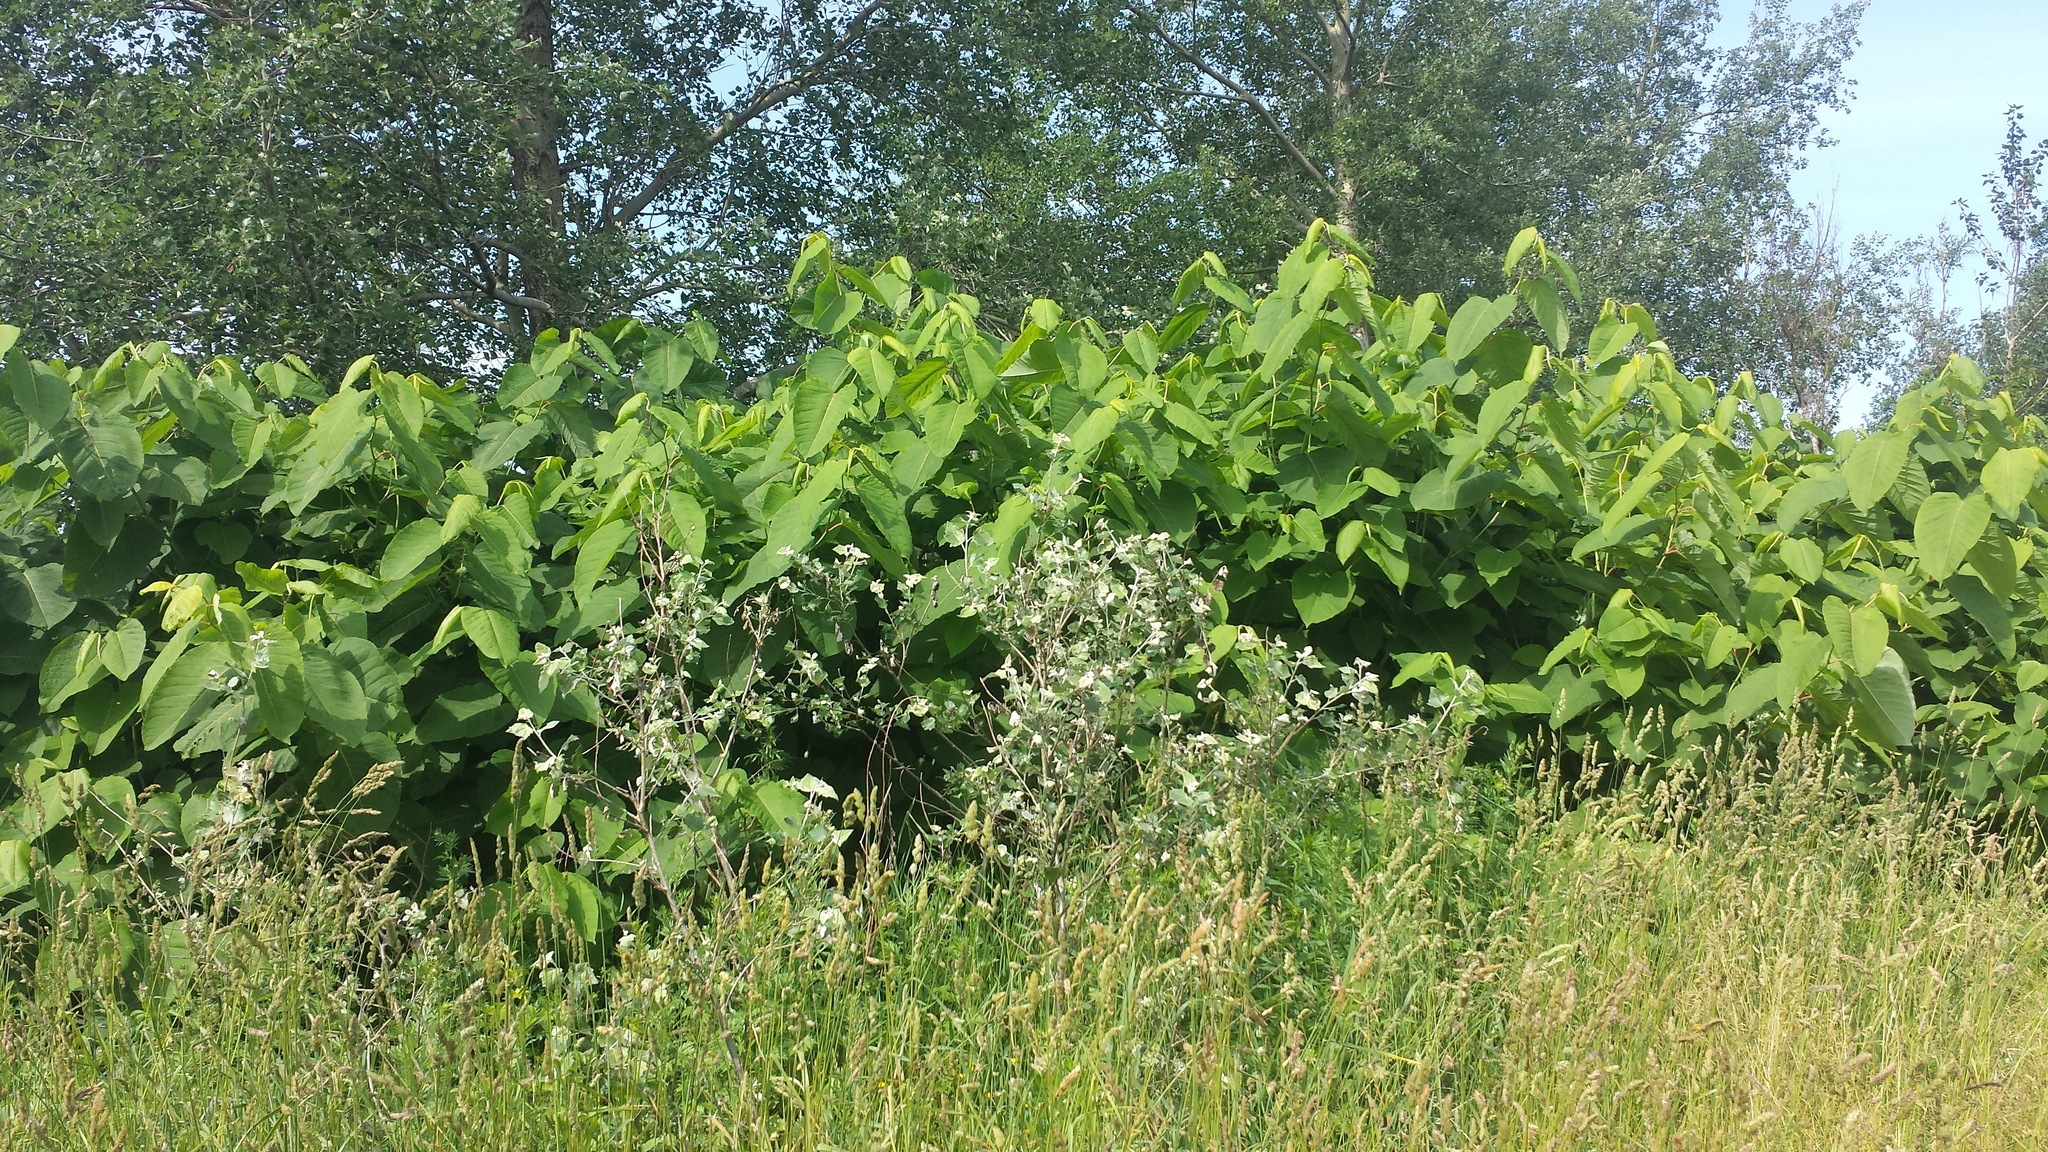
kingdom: Plantae
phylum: Tracheophyta
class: Magnoliopsida
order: Caryophyllales
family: Polygonaceae
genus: Reynoutria
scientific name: Reynoutria sachalinensis
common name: Giant knotweed
